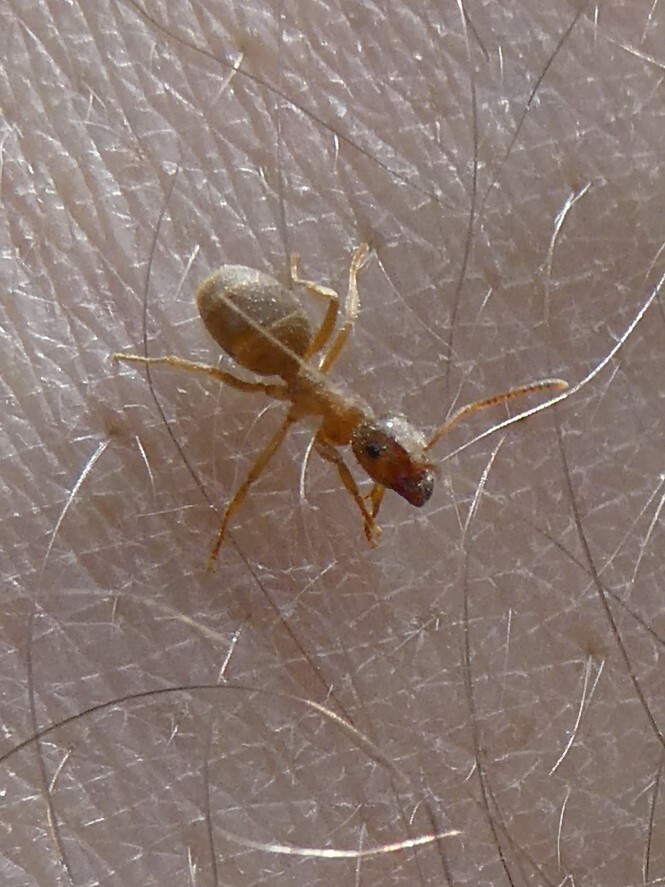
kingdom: Animalia
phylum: Arthropoda
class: Insecta
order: Hymenoptera
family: Formicidae
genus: Lasius
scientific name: Lasius
